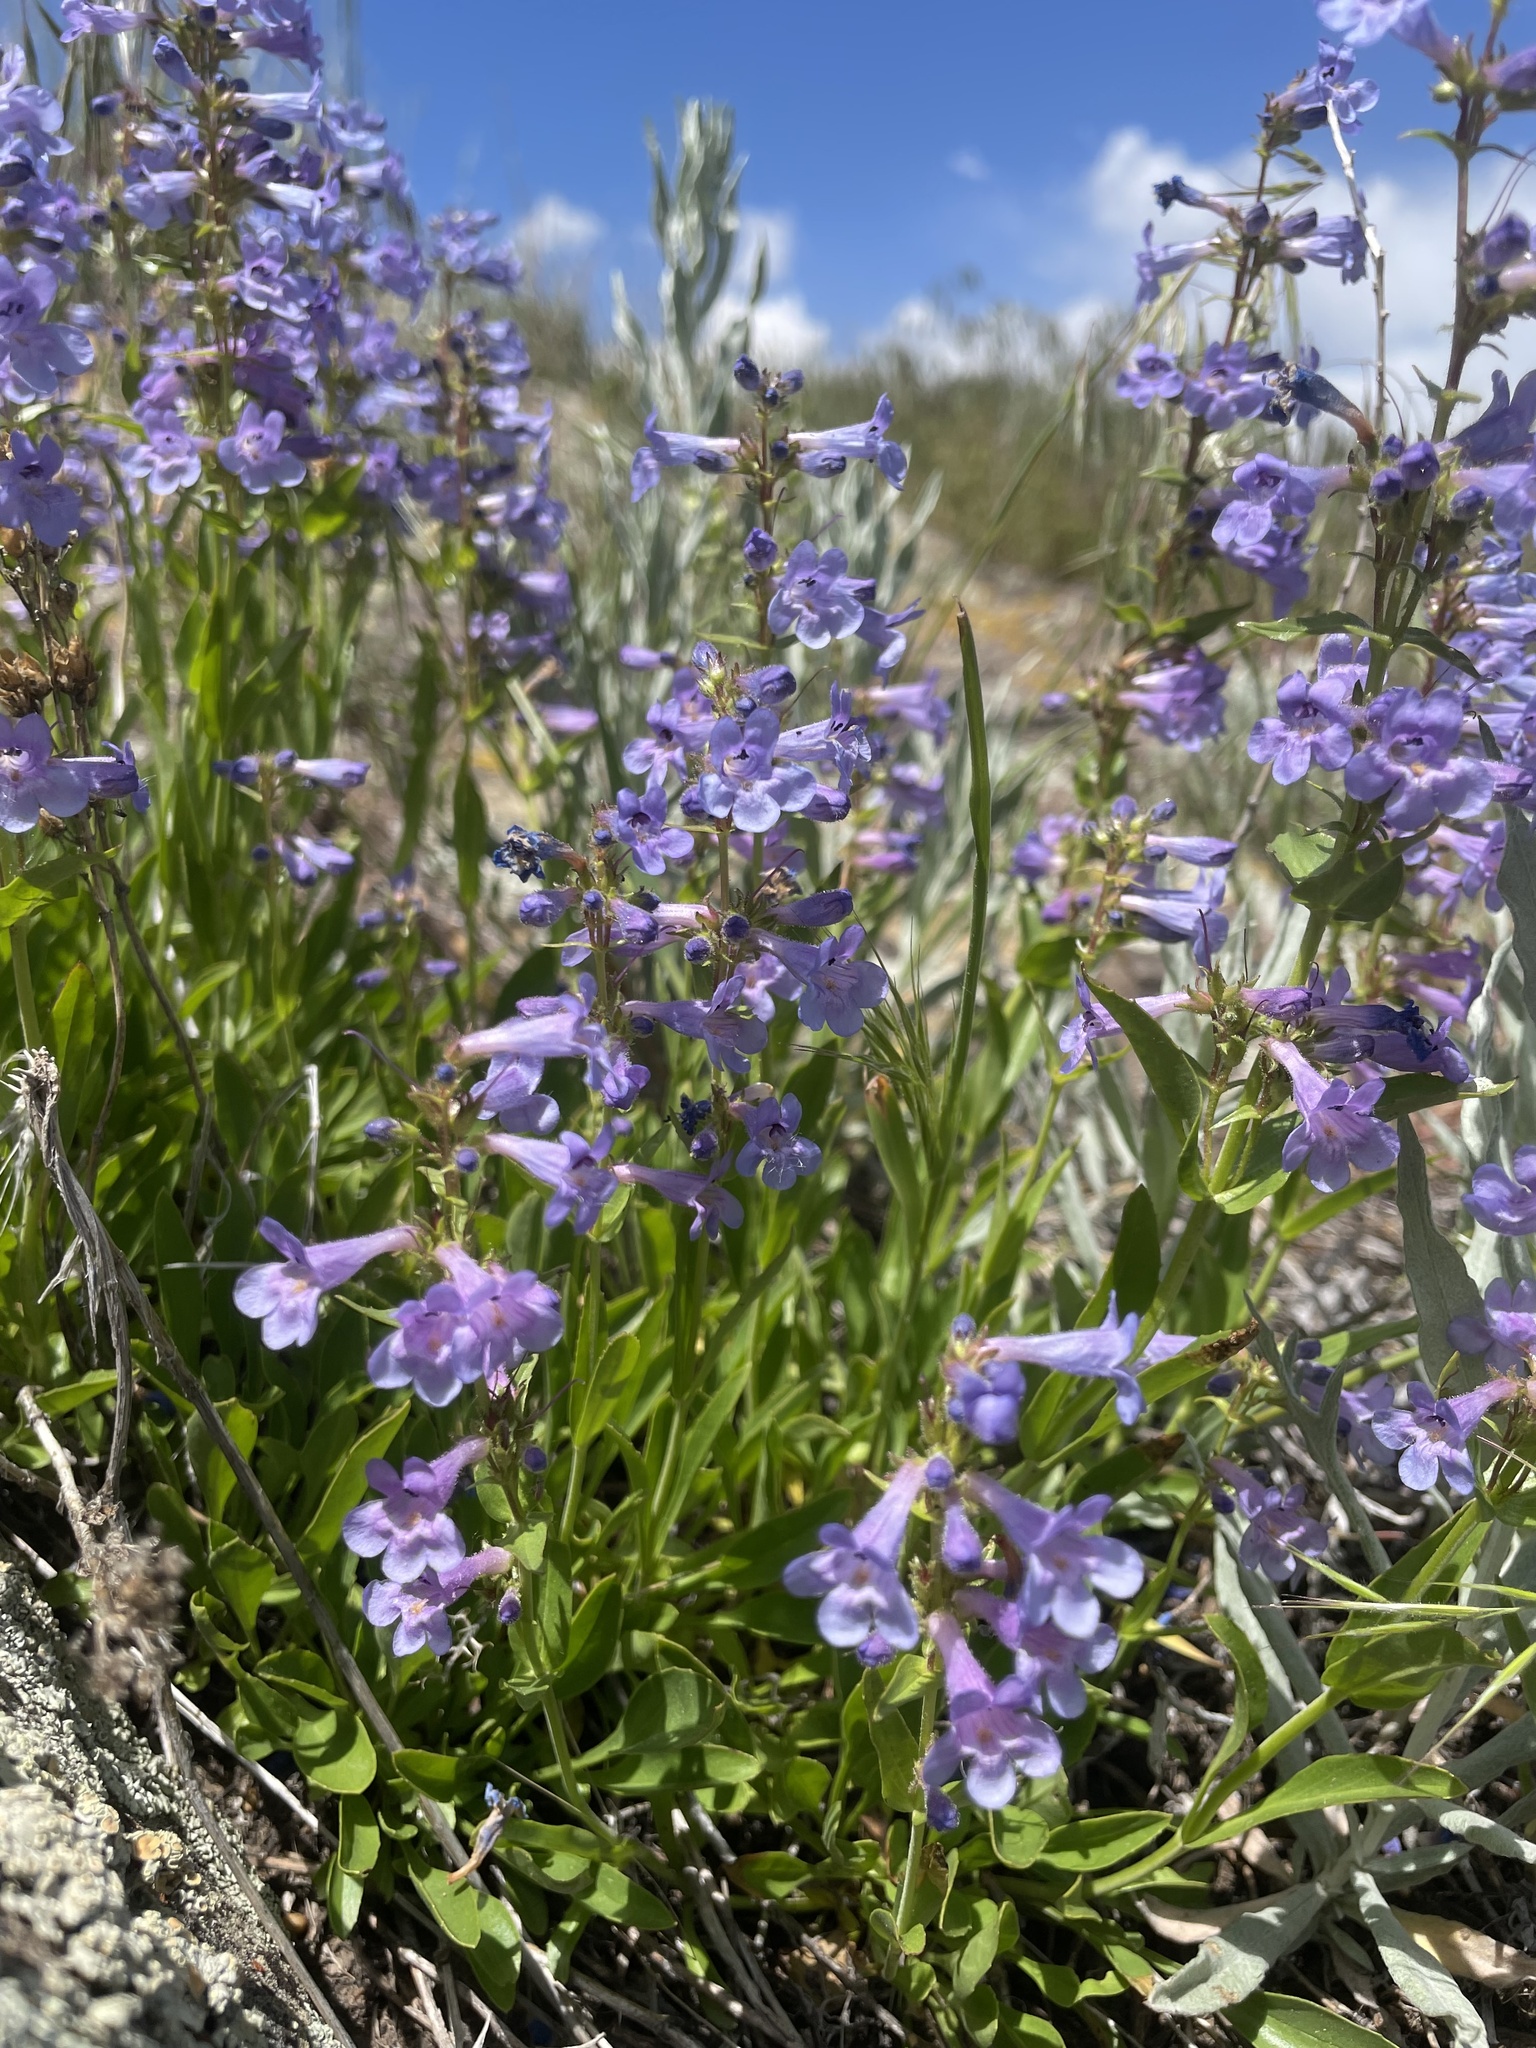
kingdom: Plantae
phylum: Tracheophyta
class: Magnoliopsida
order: Lamiales
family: Plantaginaceae
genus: Penstemon
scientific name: Penstemon virens
